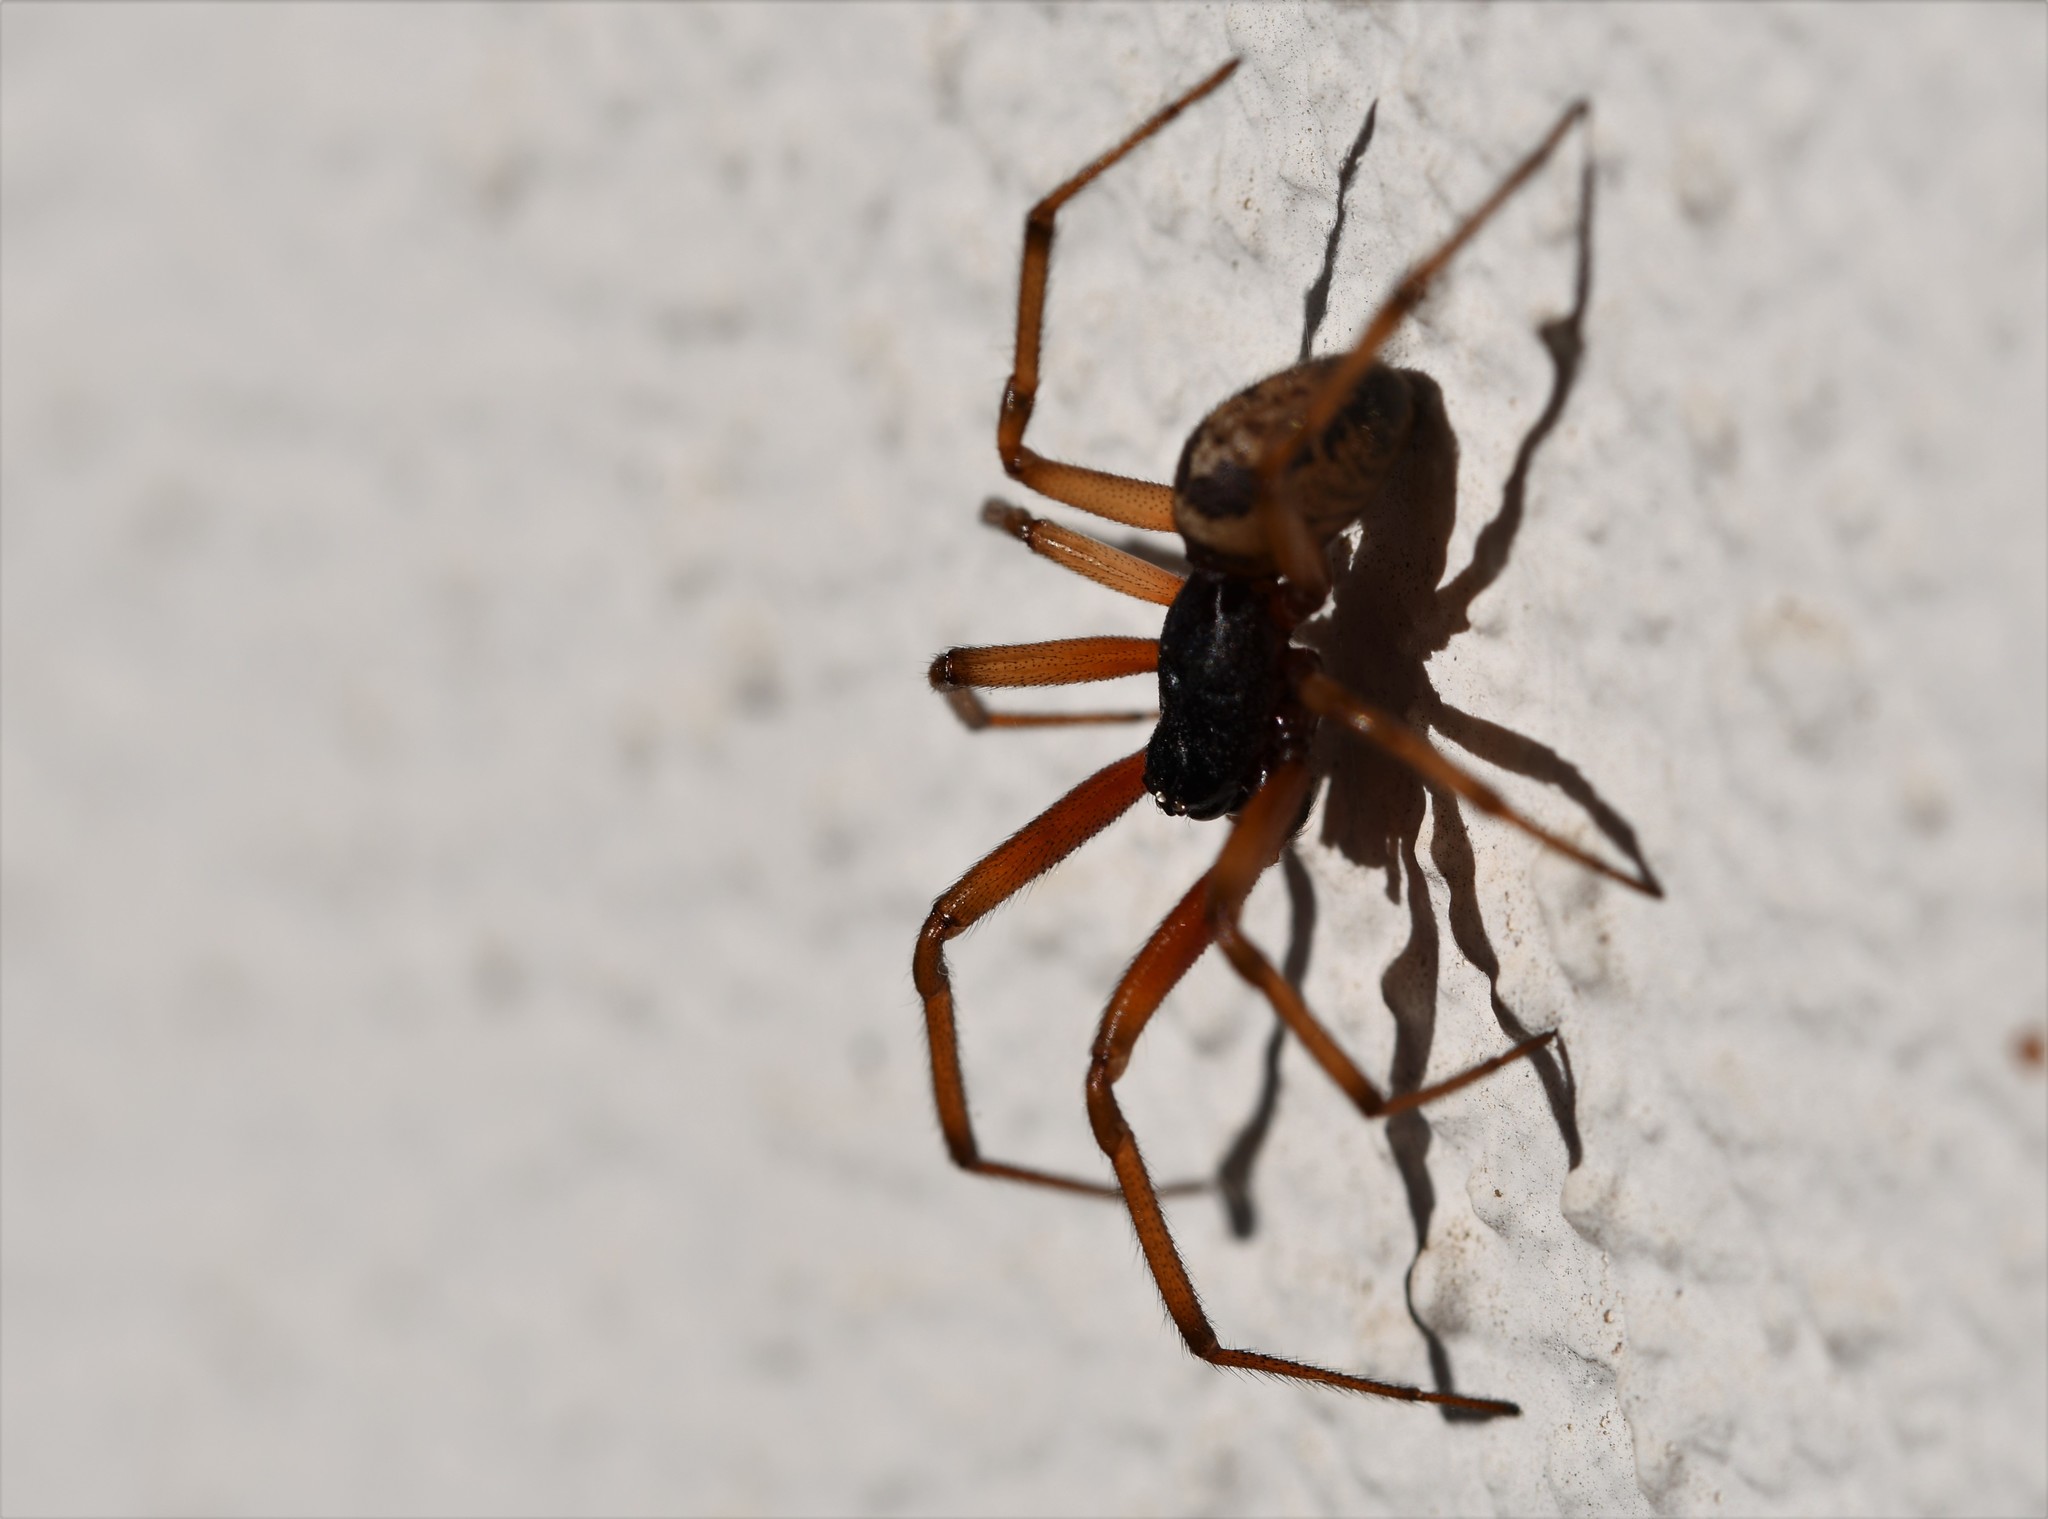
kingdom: Animalia
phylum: Arthropoda
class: Arachnida
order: Araneae
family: Theridiidae
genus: Steatoda
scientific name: Steatoda nobilis
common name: Cobweb weaver
